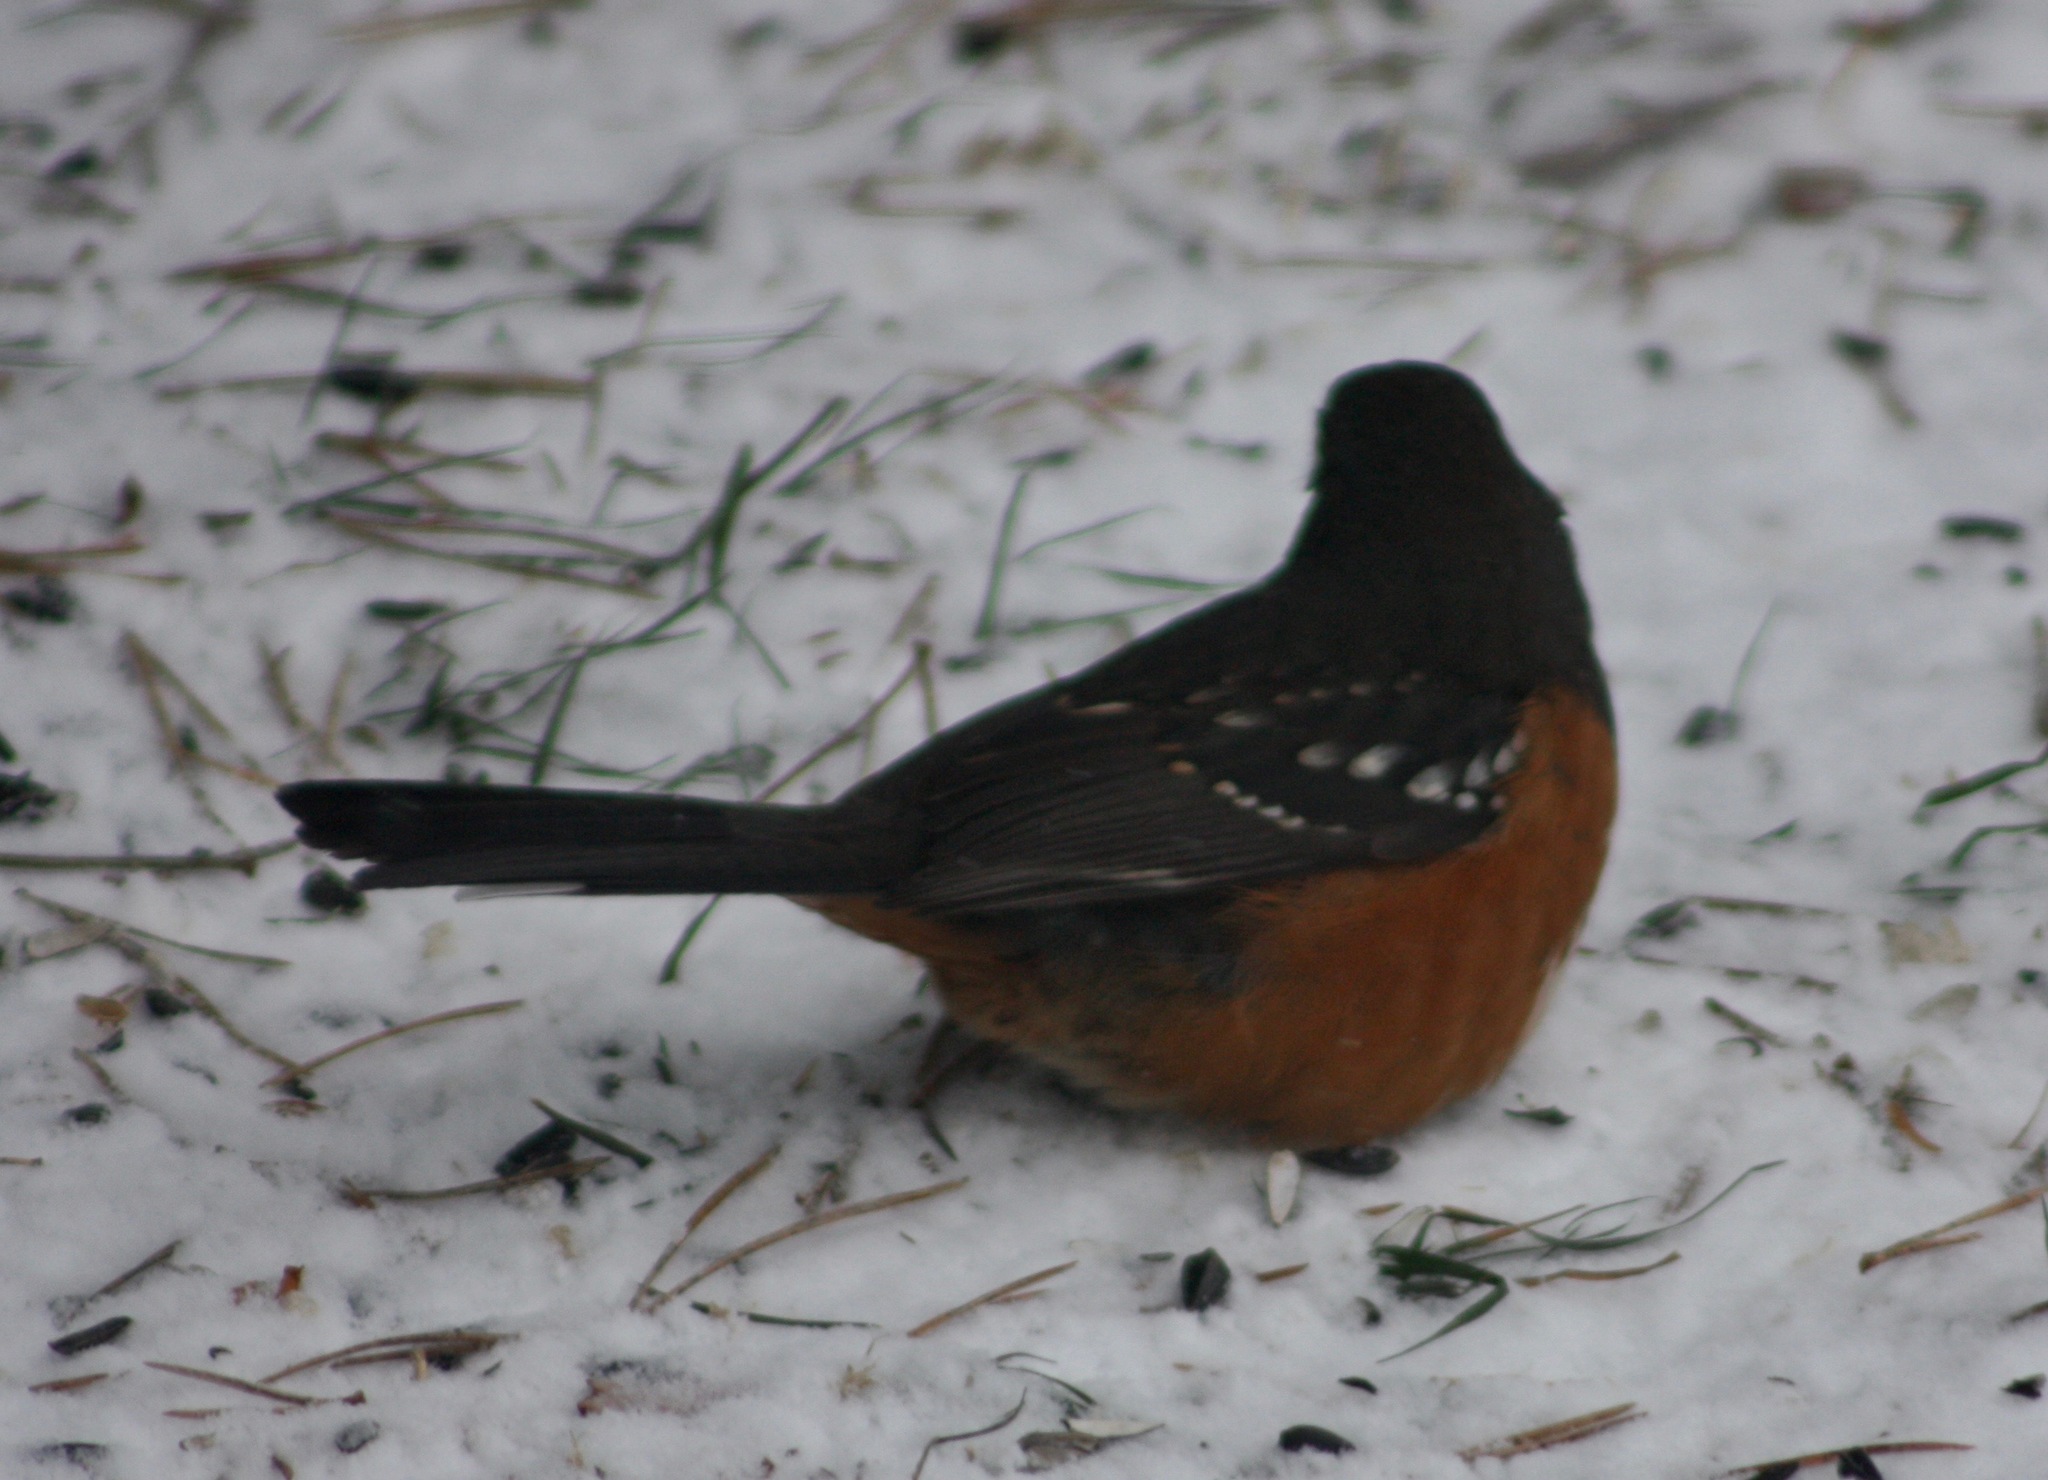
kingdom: Animalia
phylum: Chordata
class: Aves
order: Passeriformes
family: Passerellidae
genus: Pipilo
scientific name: Pipilo maculatus
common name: Spotted towhee
